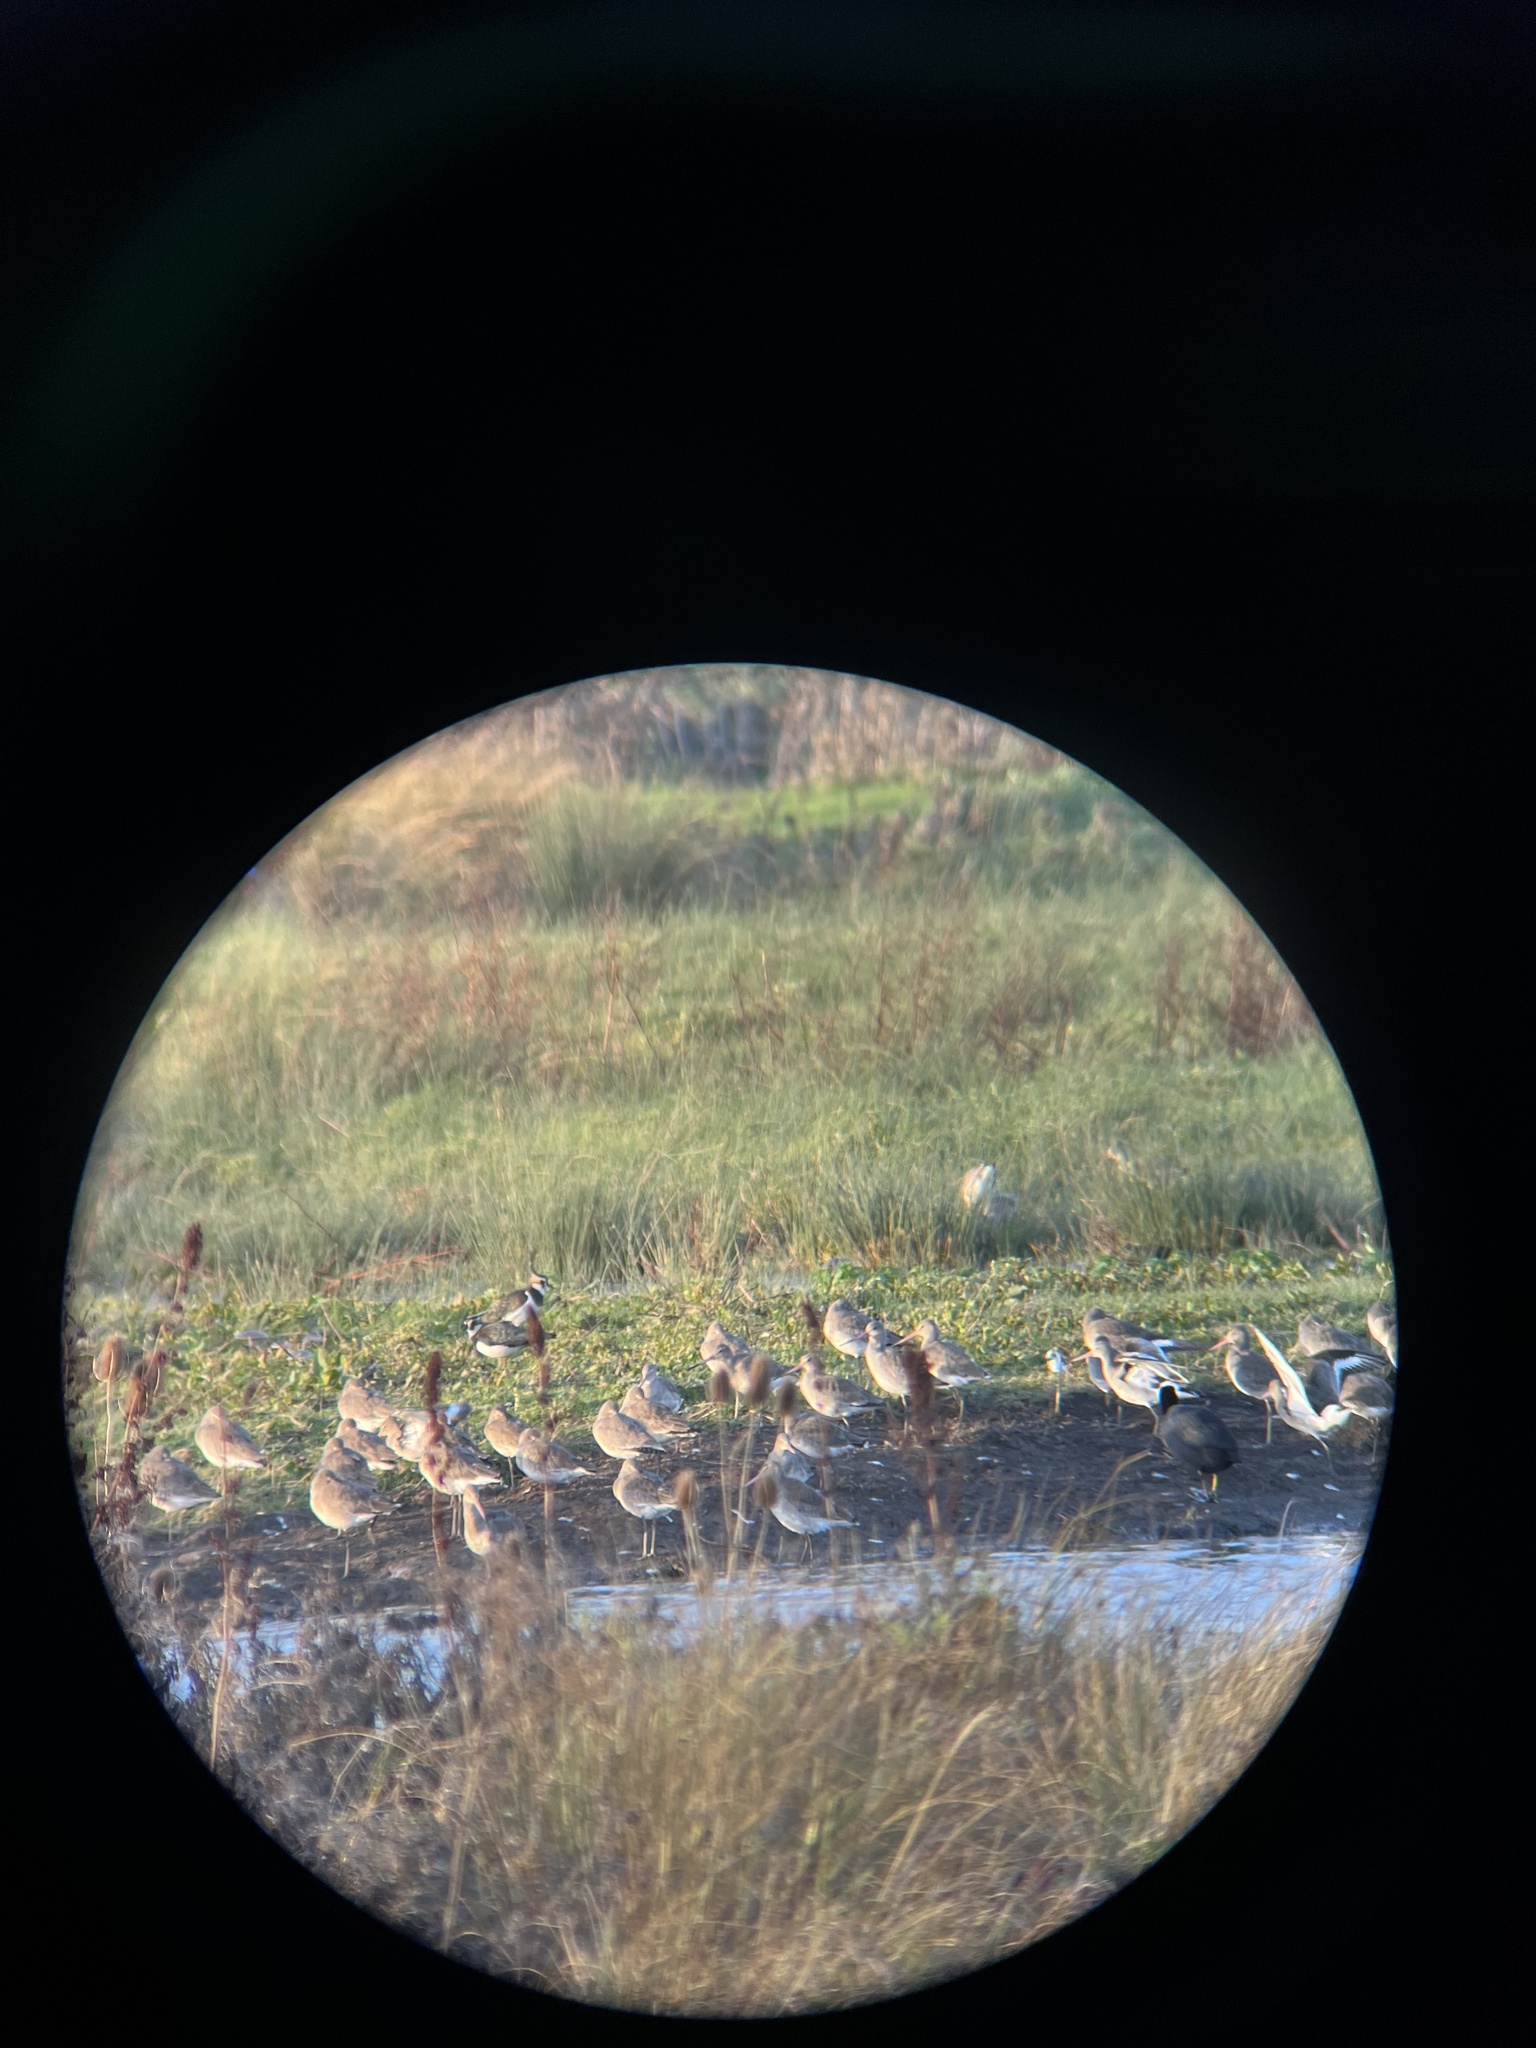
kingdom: Animalia
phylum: Chordata
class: Aves
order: Charadriiformes
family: Scolopacidae
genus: Limosa
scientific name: Limosa limosa
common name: Black-tailed godwit
